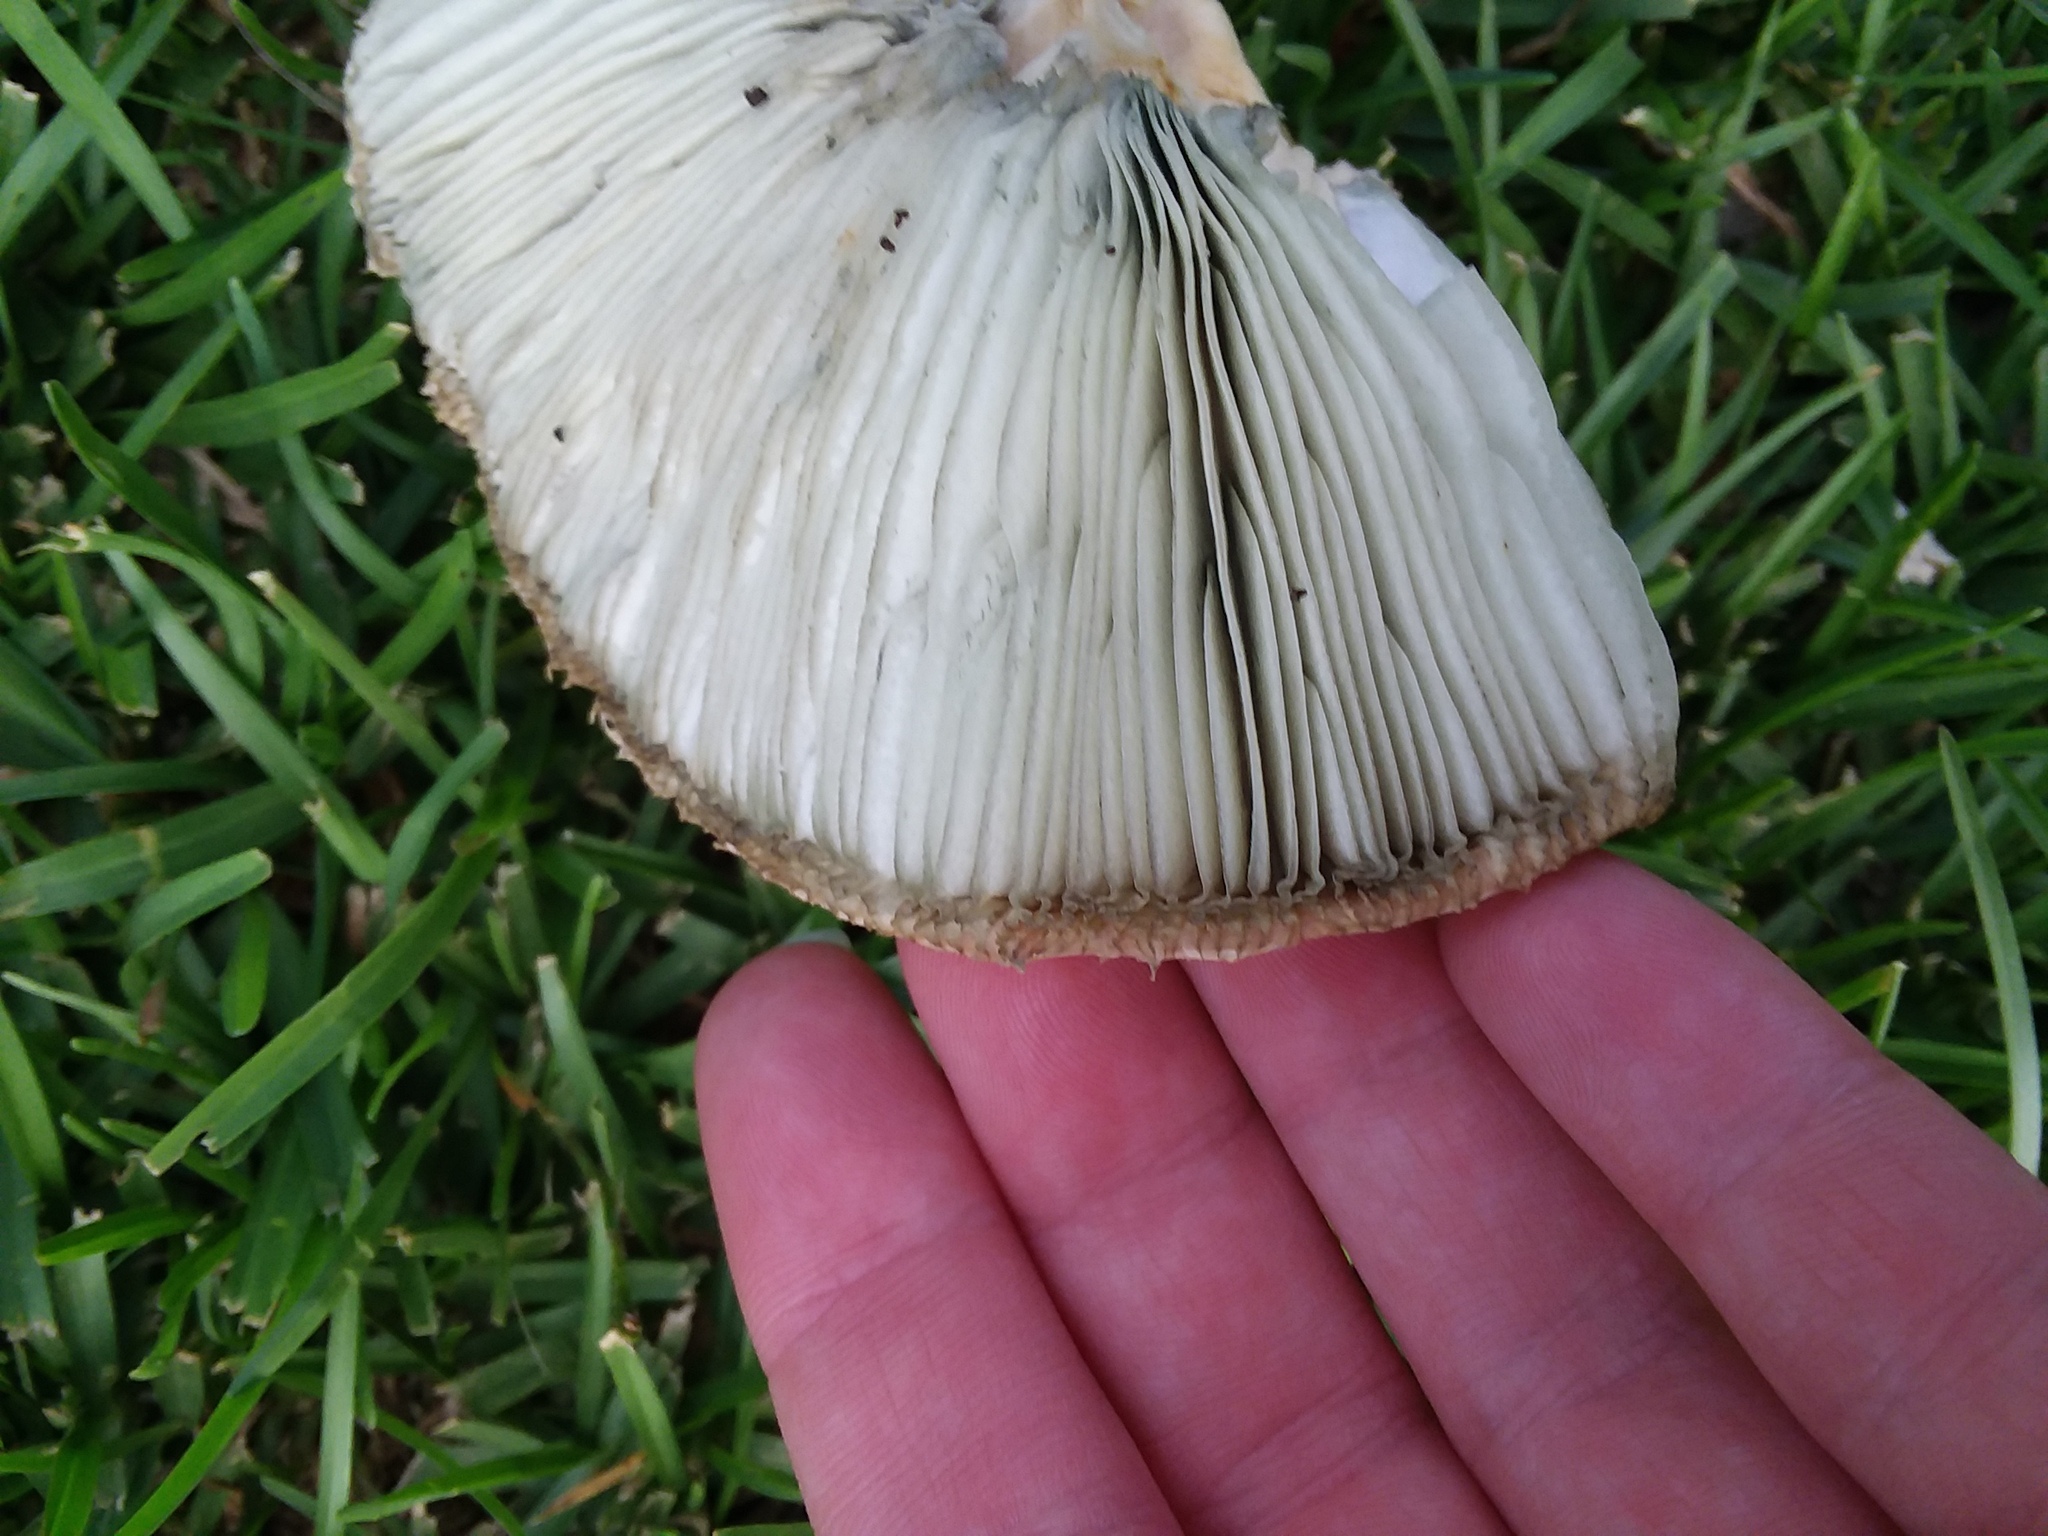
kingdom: Fungi
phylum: Basidiomycota
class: Agaricomycetes
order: Agaricales
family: Agaricaceae
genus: Chlorophyllum
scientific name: Chlorophyllum molybdites
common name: False parasol
